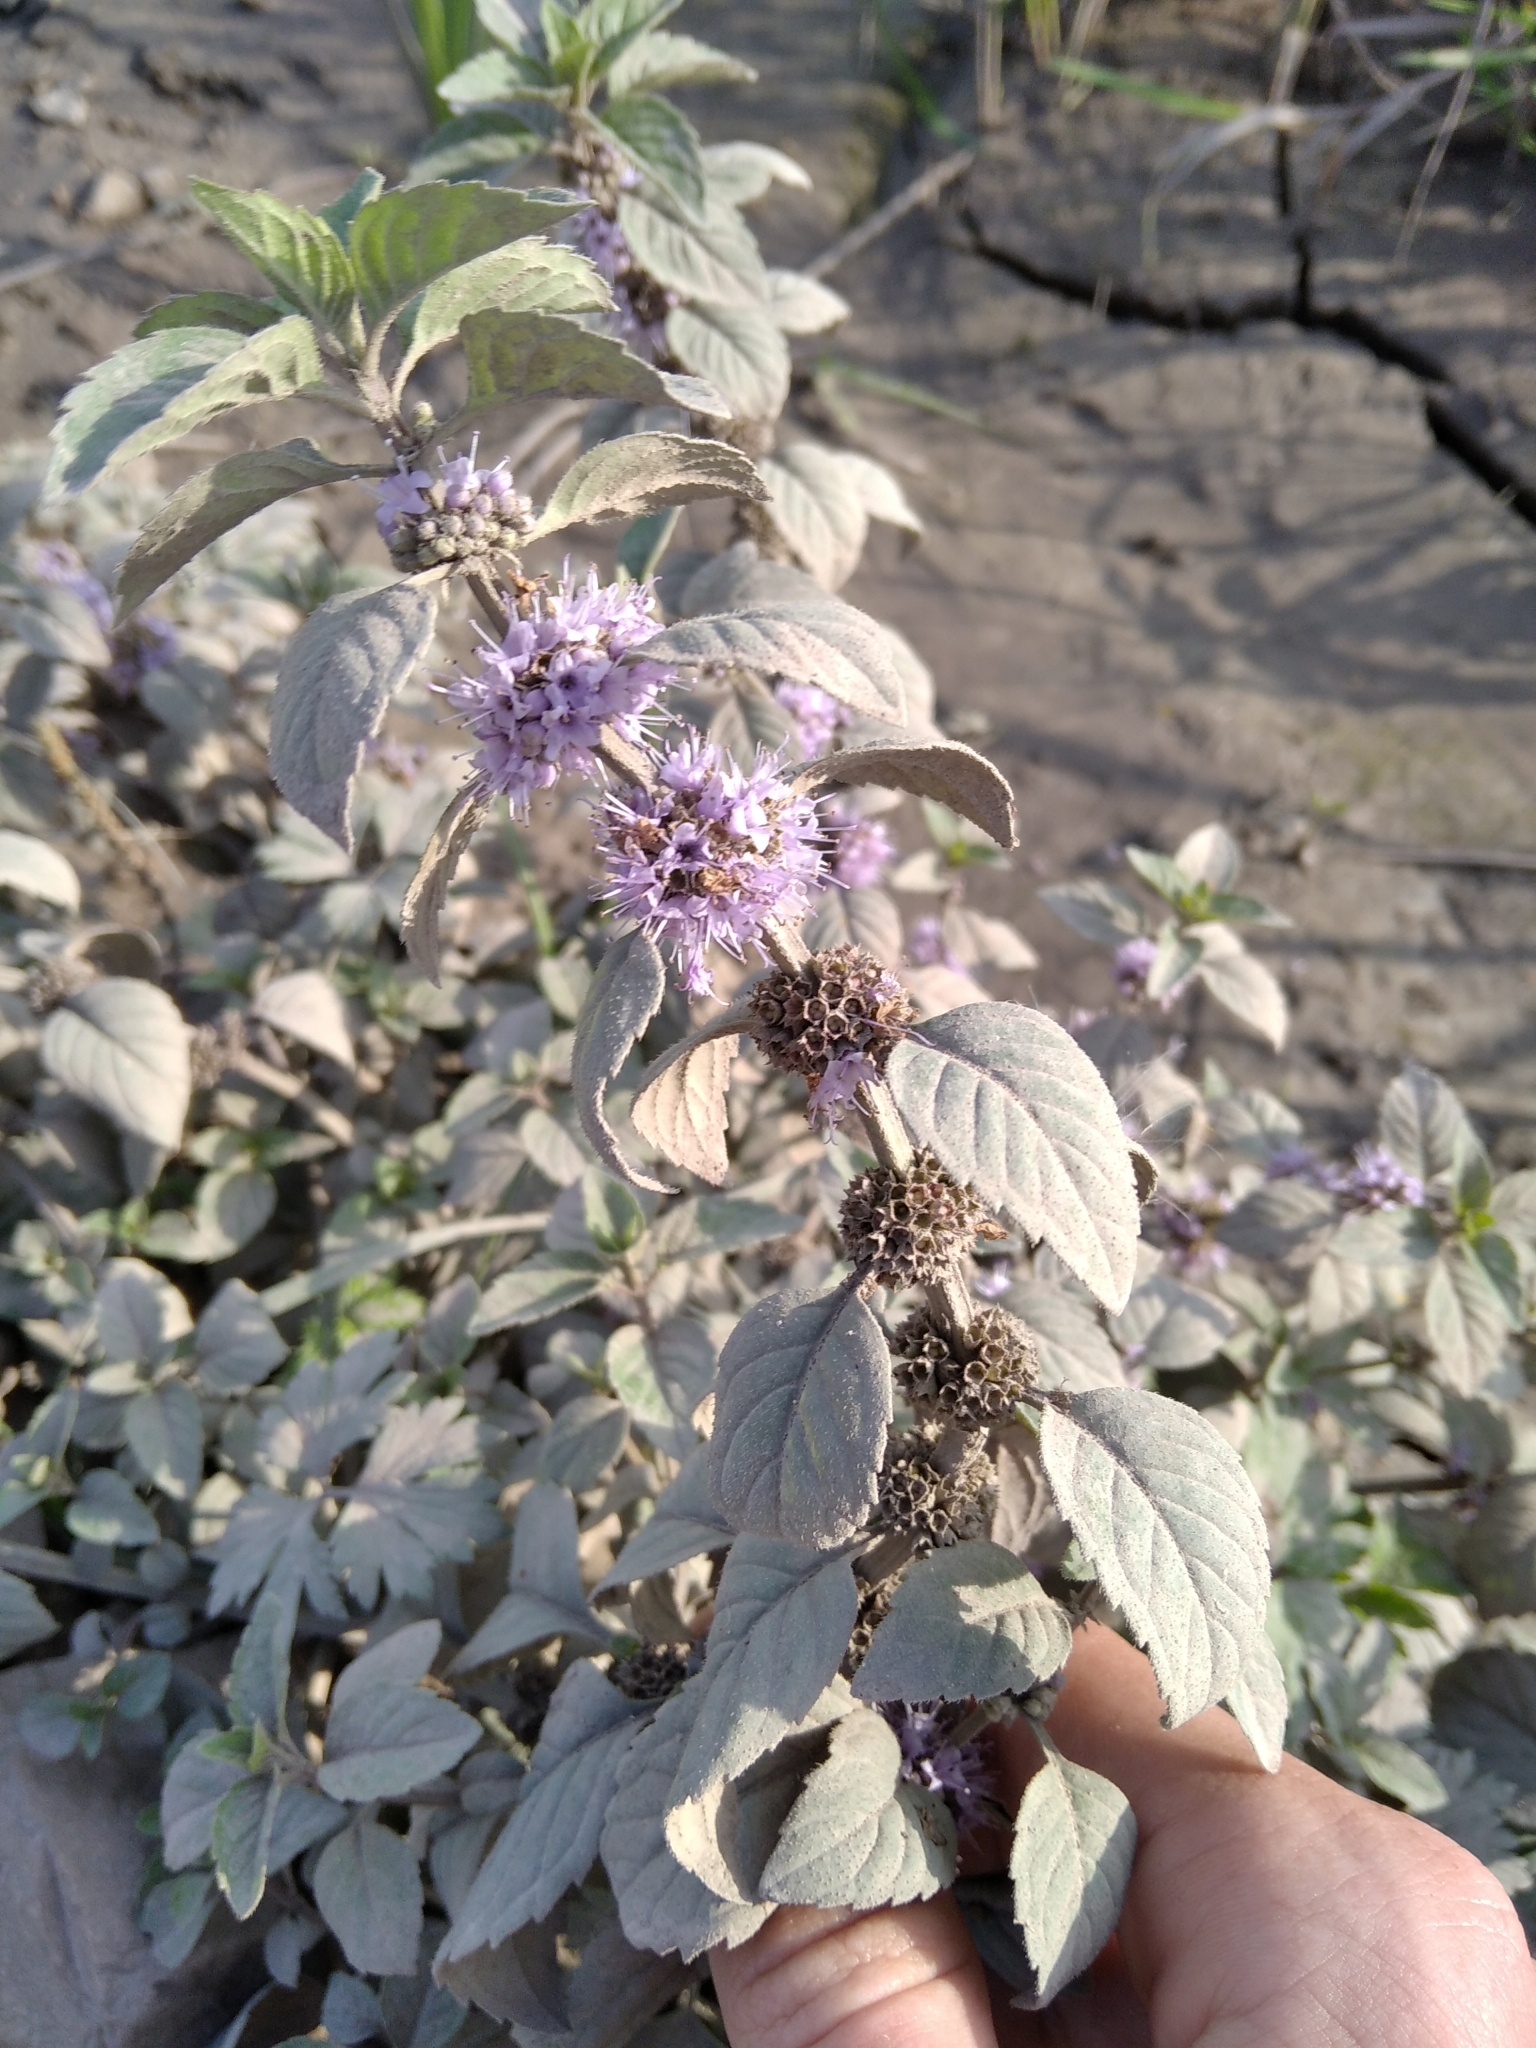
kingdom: Plantae
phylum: Tracheophyta
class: Magnoliopsida
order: Lamiales
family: Lamiaceae
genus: Mentha
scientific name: Mentha arvensis
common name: Corn mint
